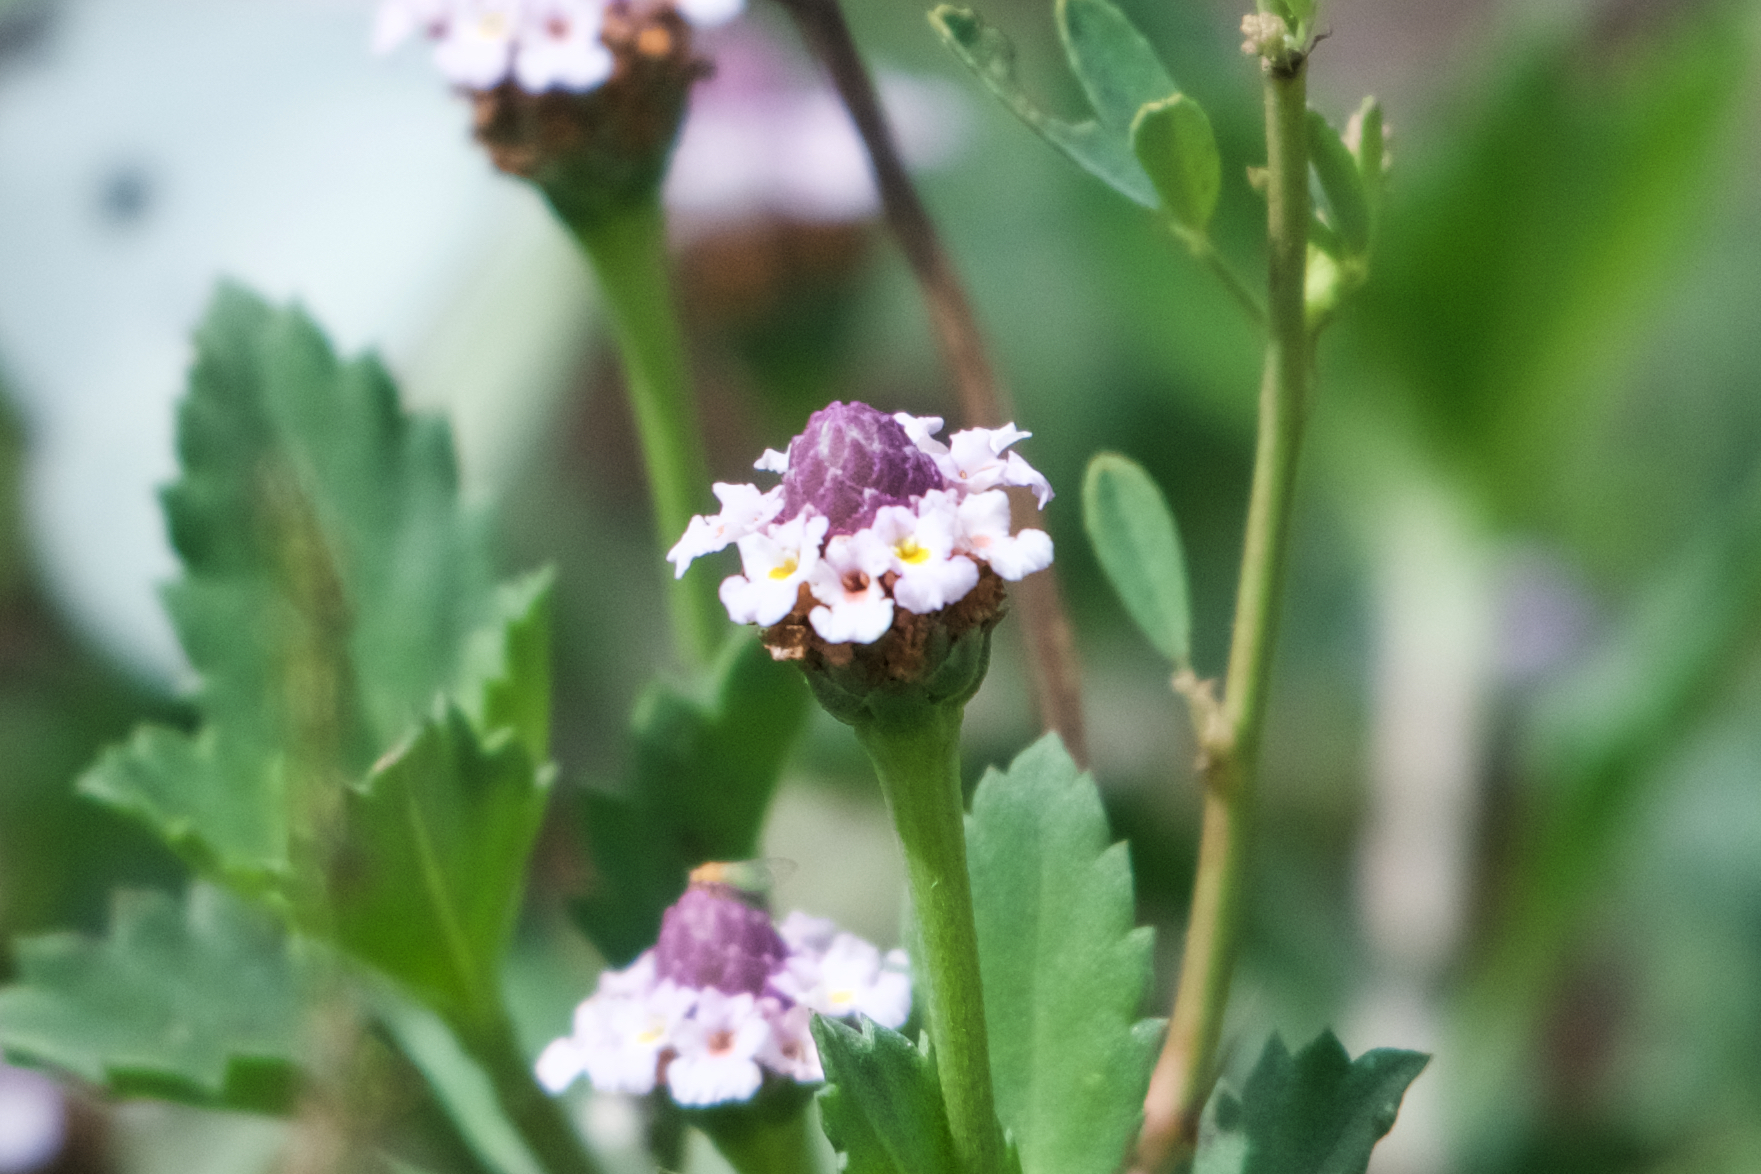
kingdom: Plantae
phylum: Tracheophyta
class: Magnoliopsida
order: Lamiales
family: Verbenaceae
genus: Phyla
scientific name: Phyla nodiflora
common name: Frogfruit
